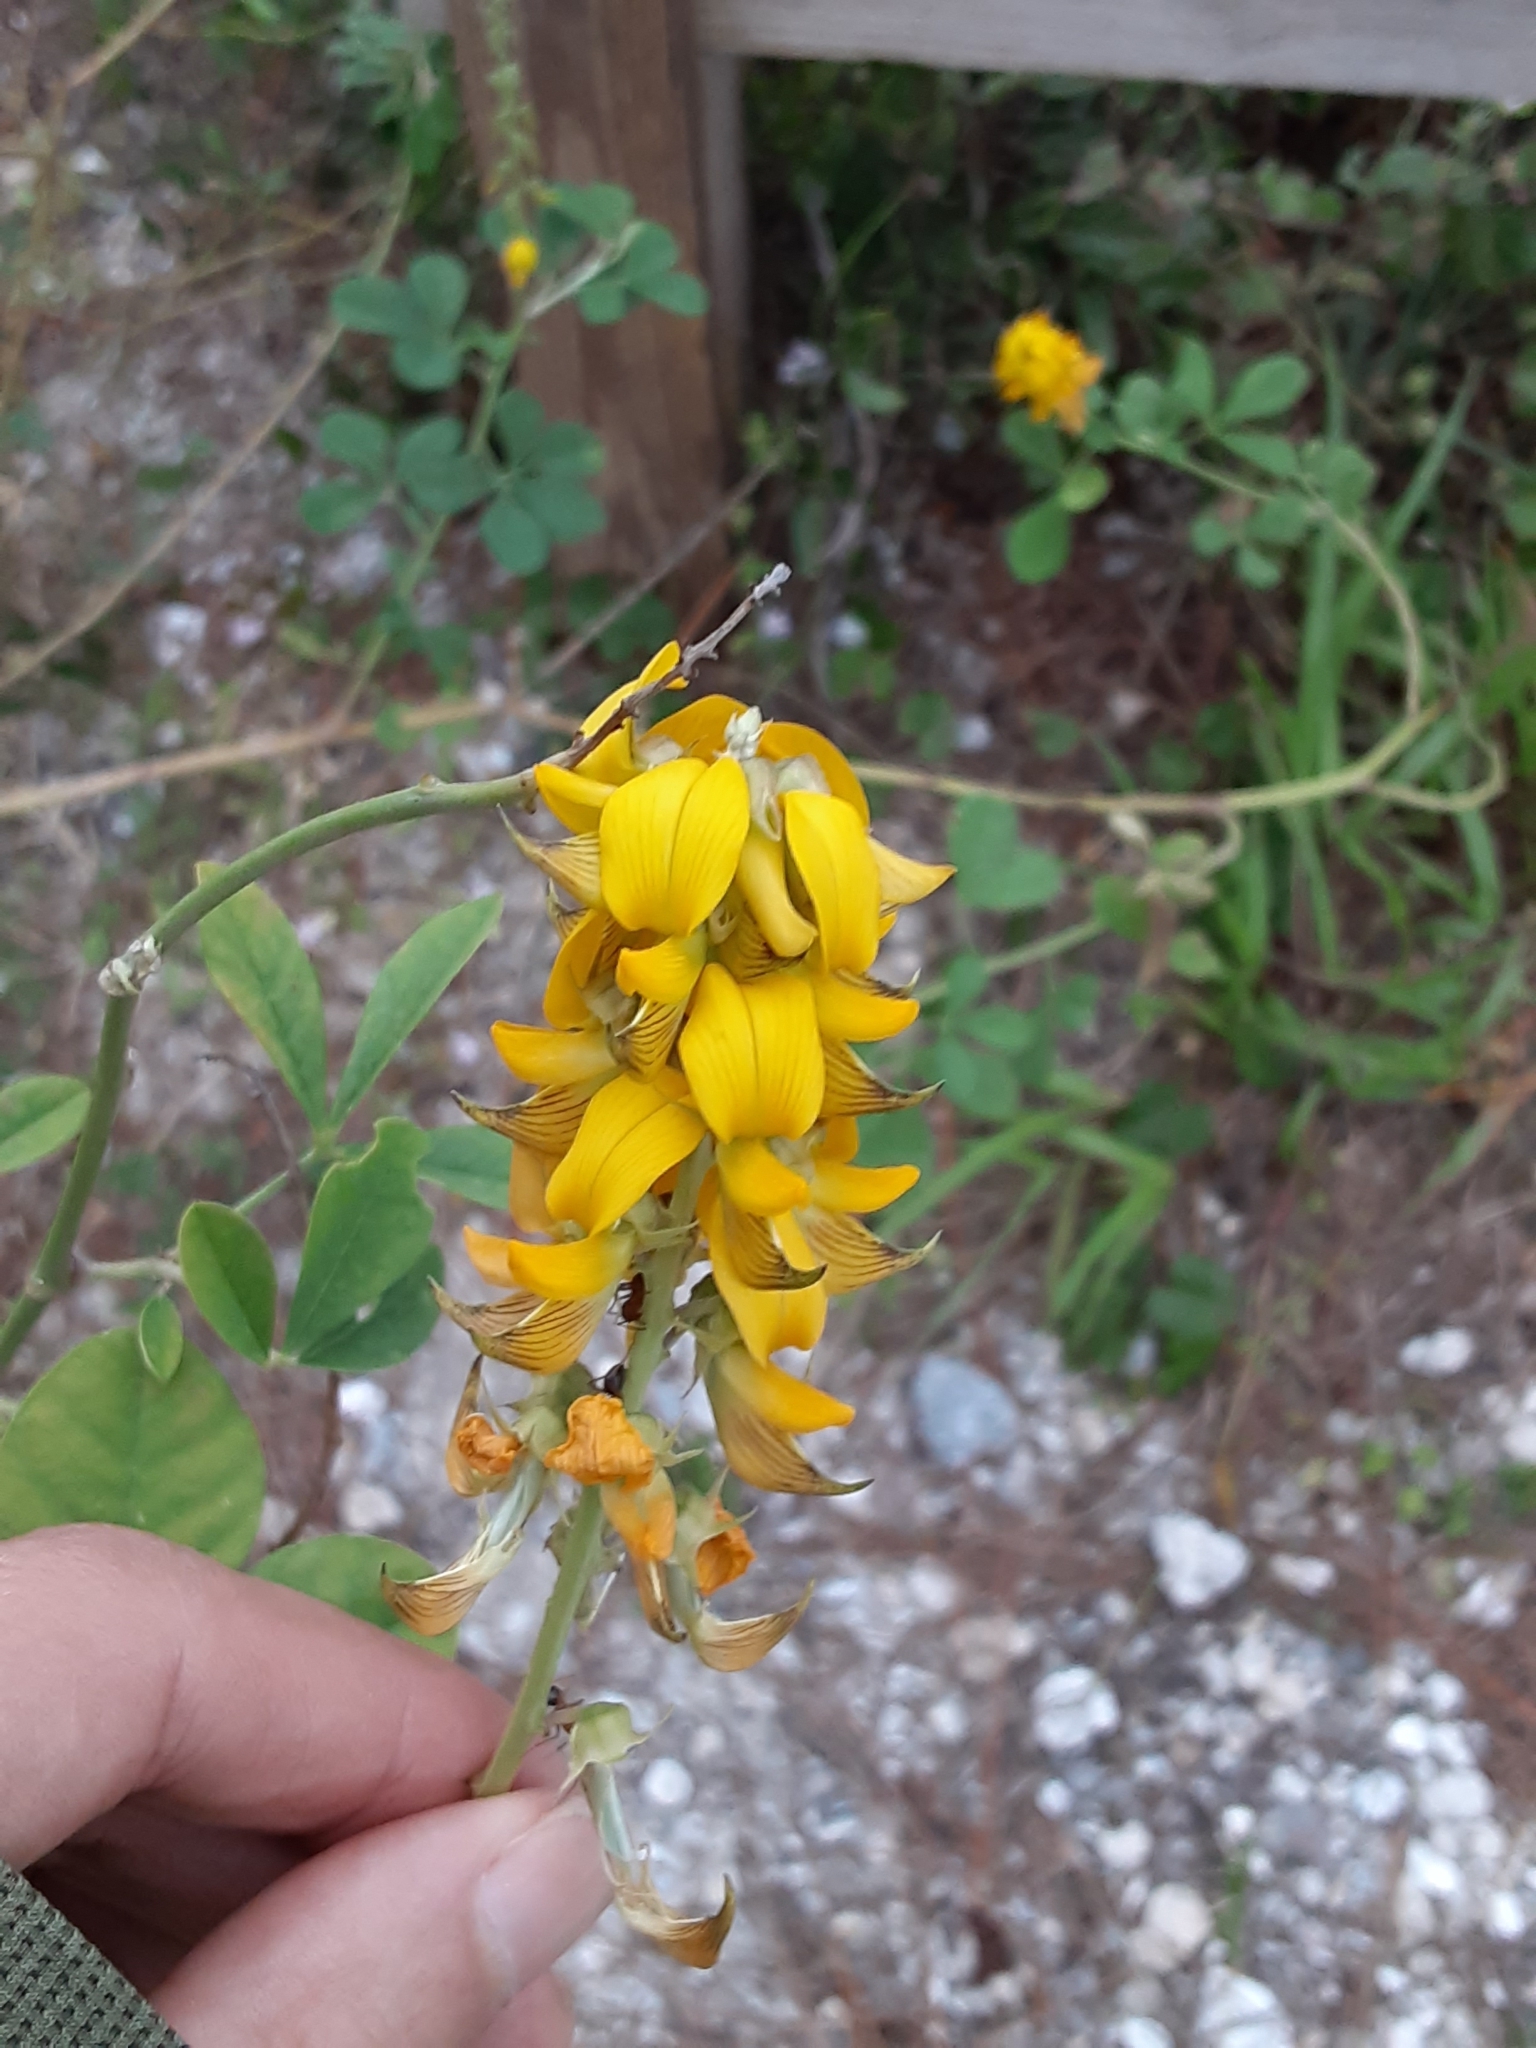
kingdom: Plantae
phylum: Tracheophyta
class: Magnoliopsida
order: Fabales
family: Fabaceae
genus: Crotalaria
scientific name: Crotalaria pallida
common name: Smooth rattlebox
